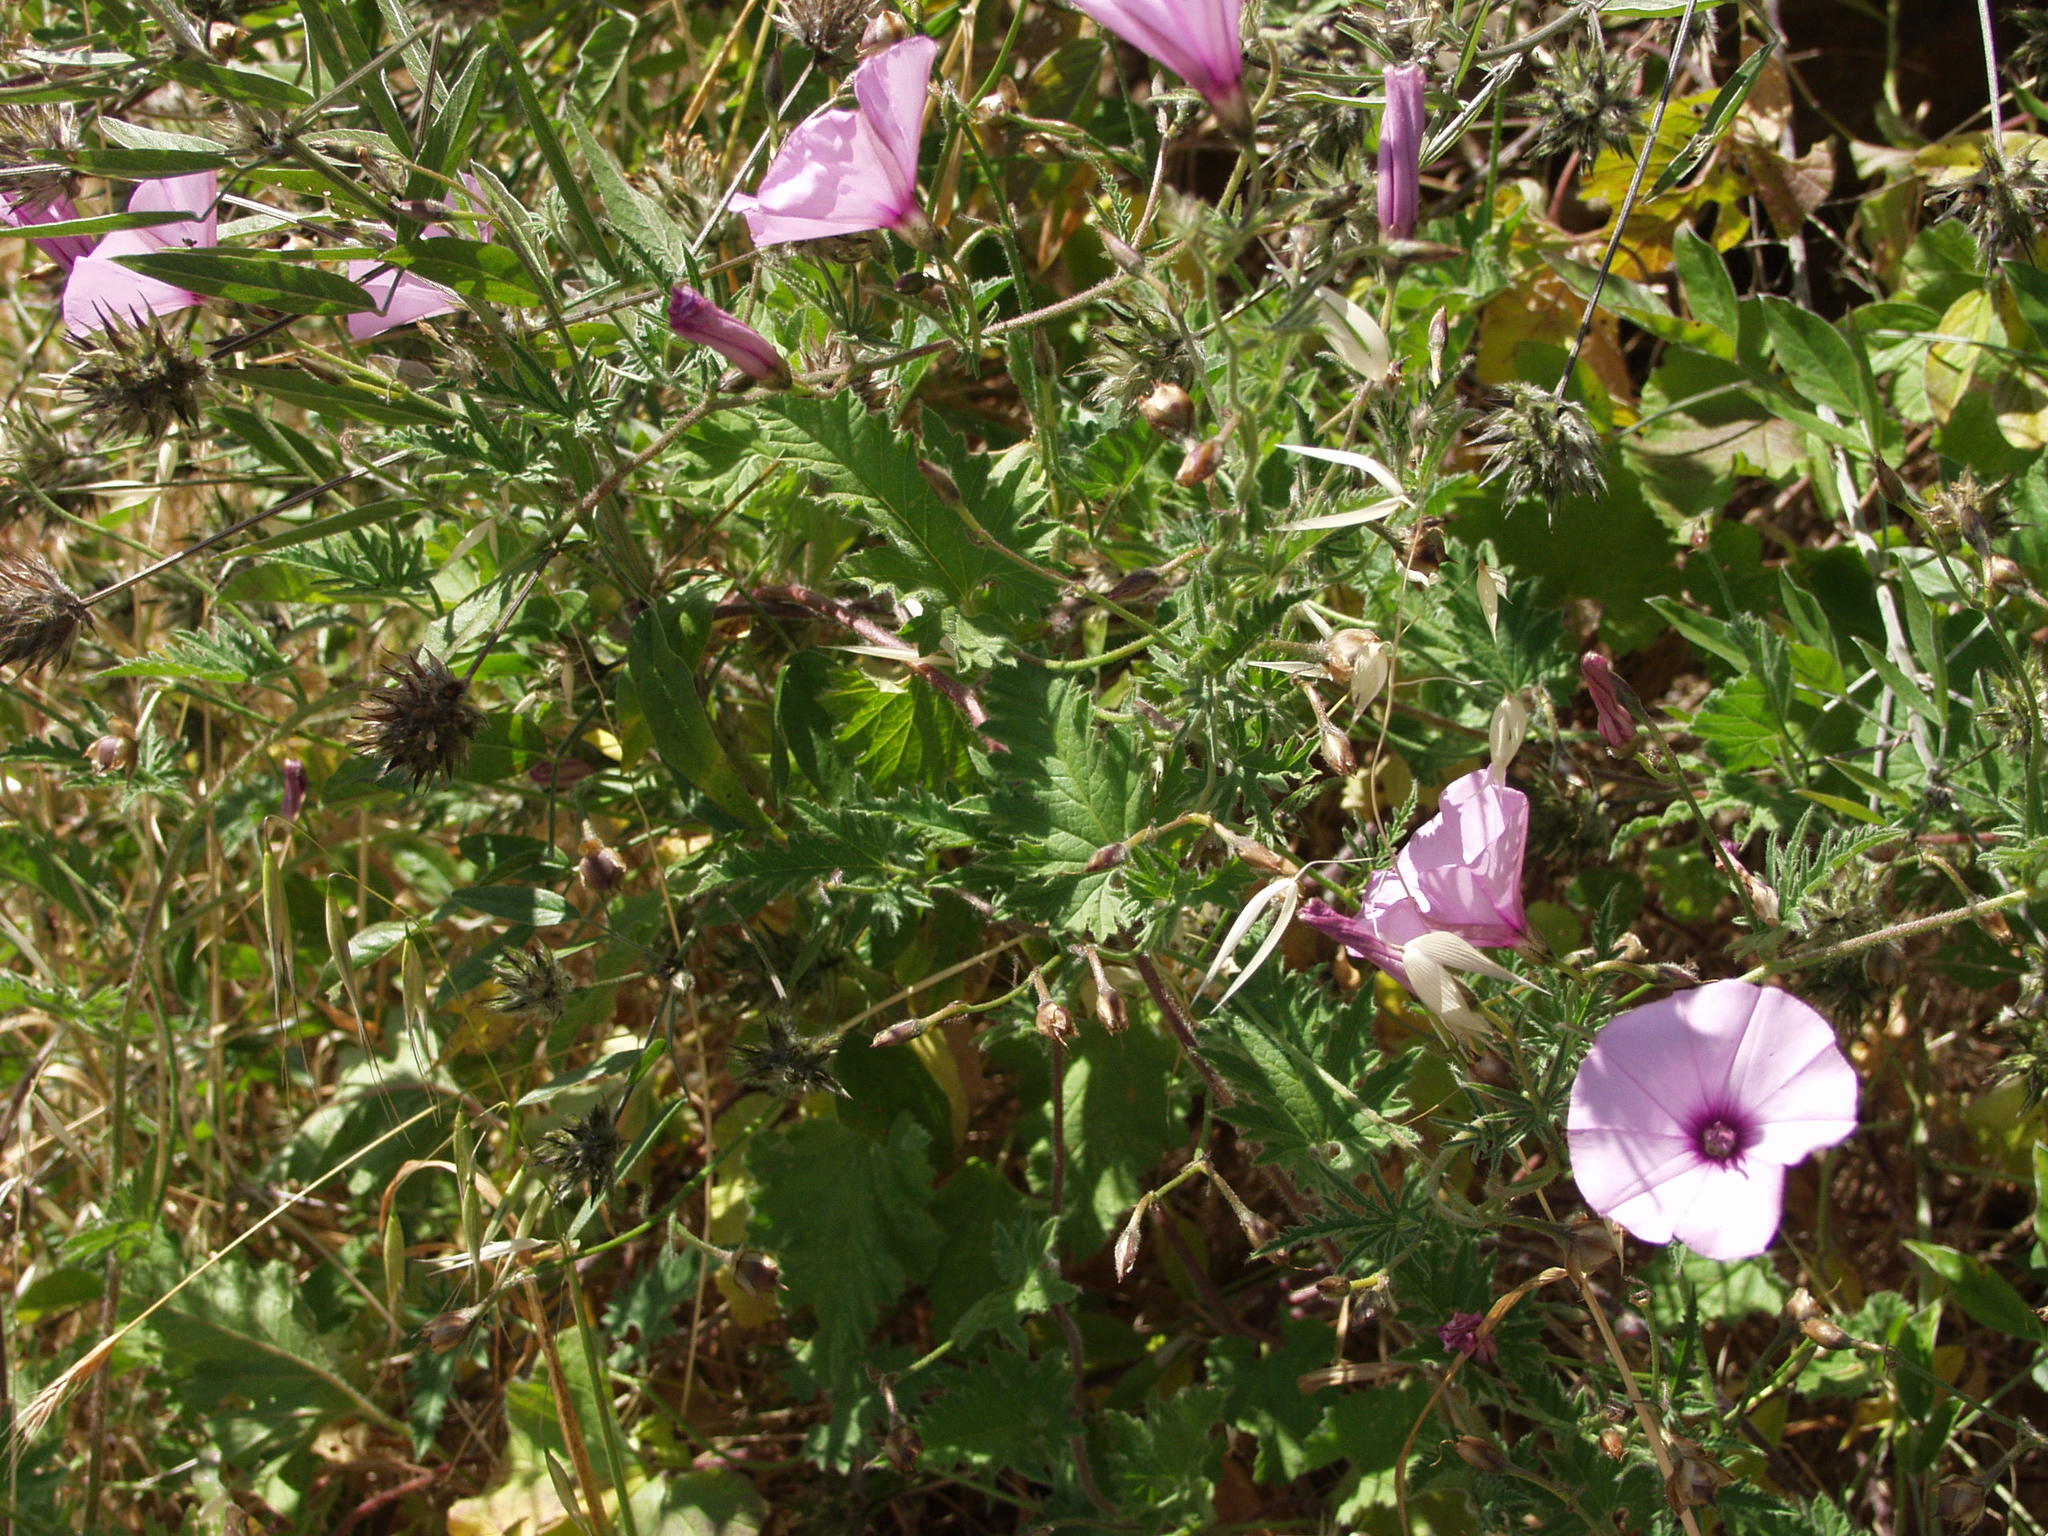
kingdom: Plantae
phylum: Tracheophyta
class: Magnoliopsida
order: Solanales
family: Convolvulaceae
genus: Convolvulus
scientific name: Convolvulus althaeoides
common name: Mallow bindweed
